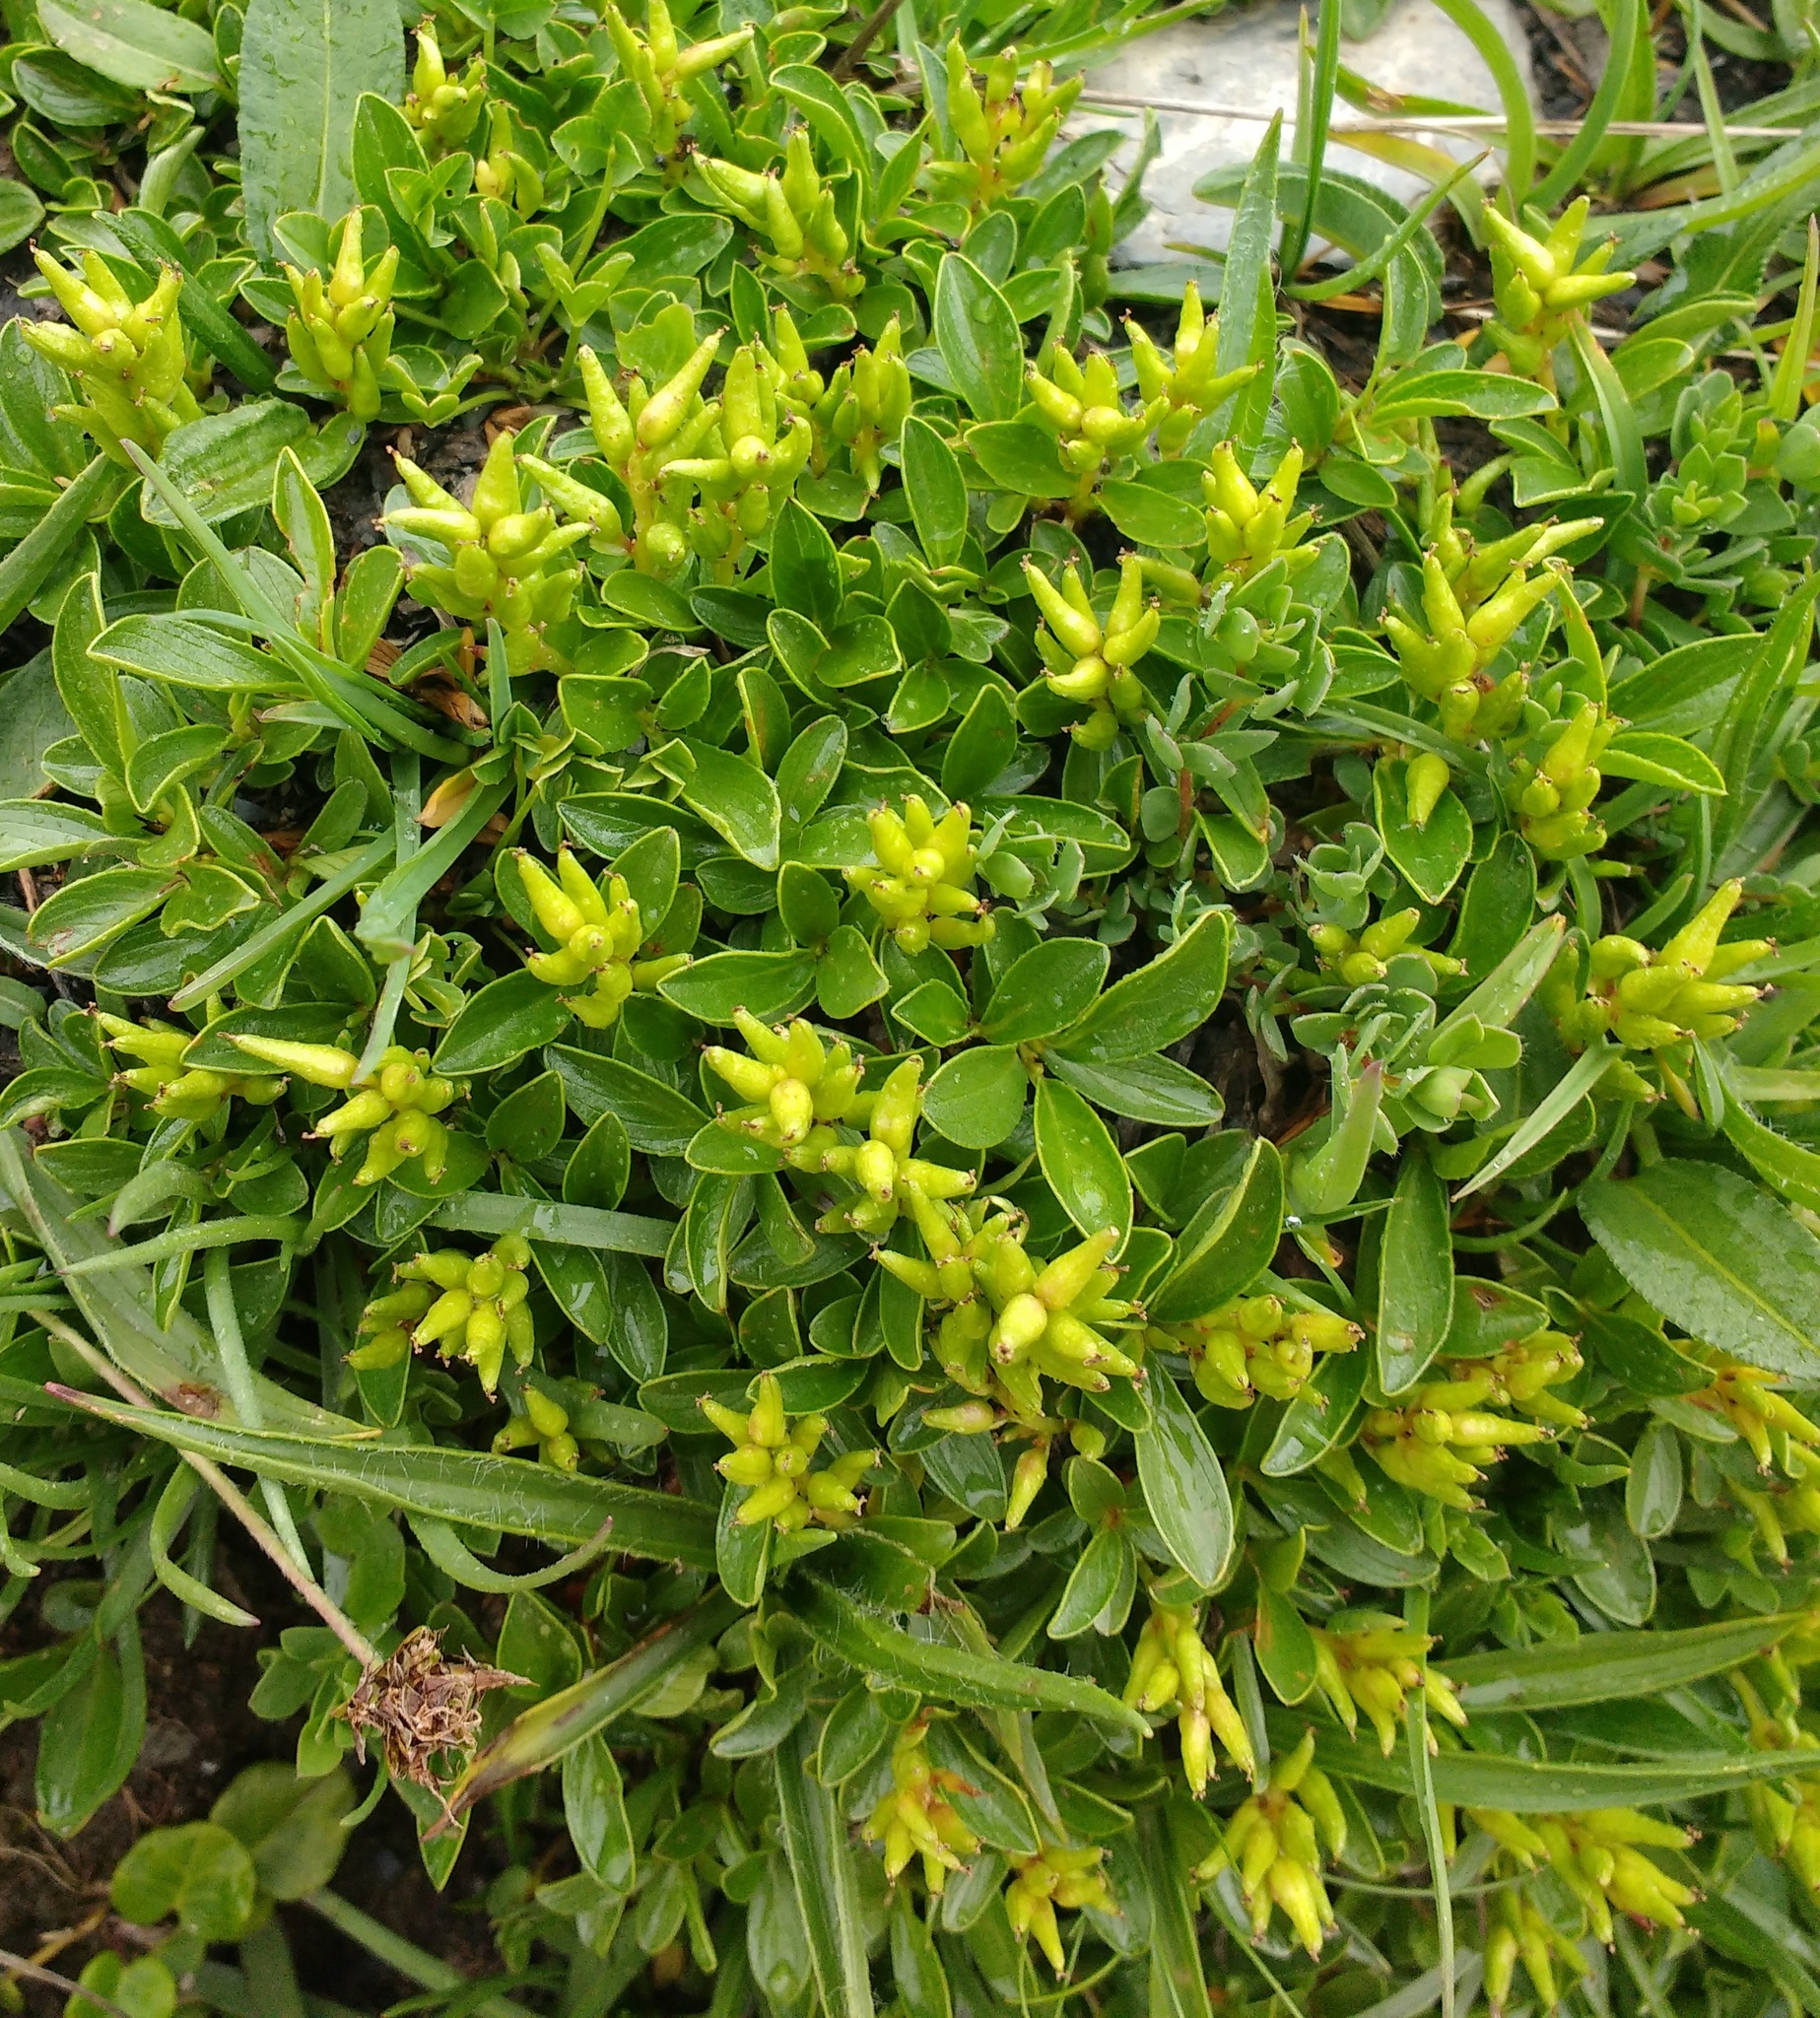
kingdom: Plantae
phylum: Tracheophyta
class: Magnoliopsida
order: Malpighiales
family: Salicaceae
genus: Salix
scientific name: Salix retusa
